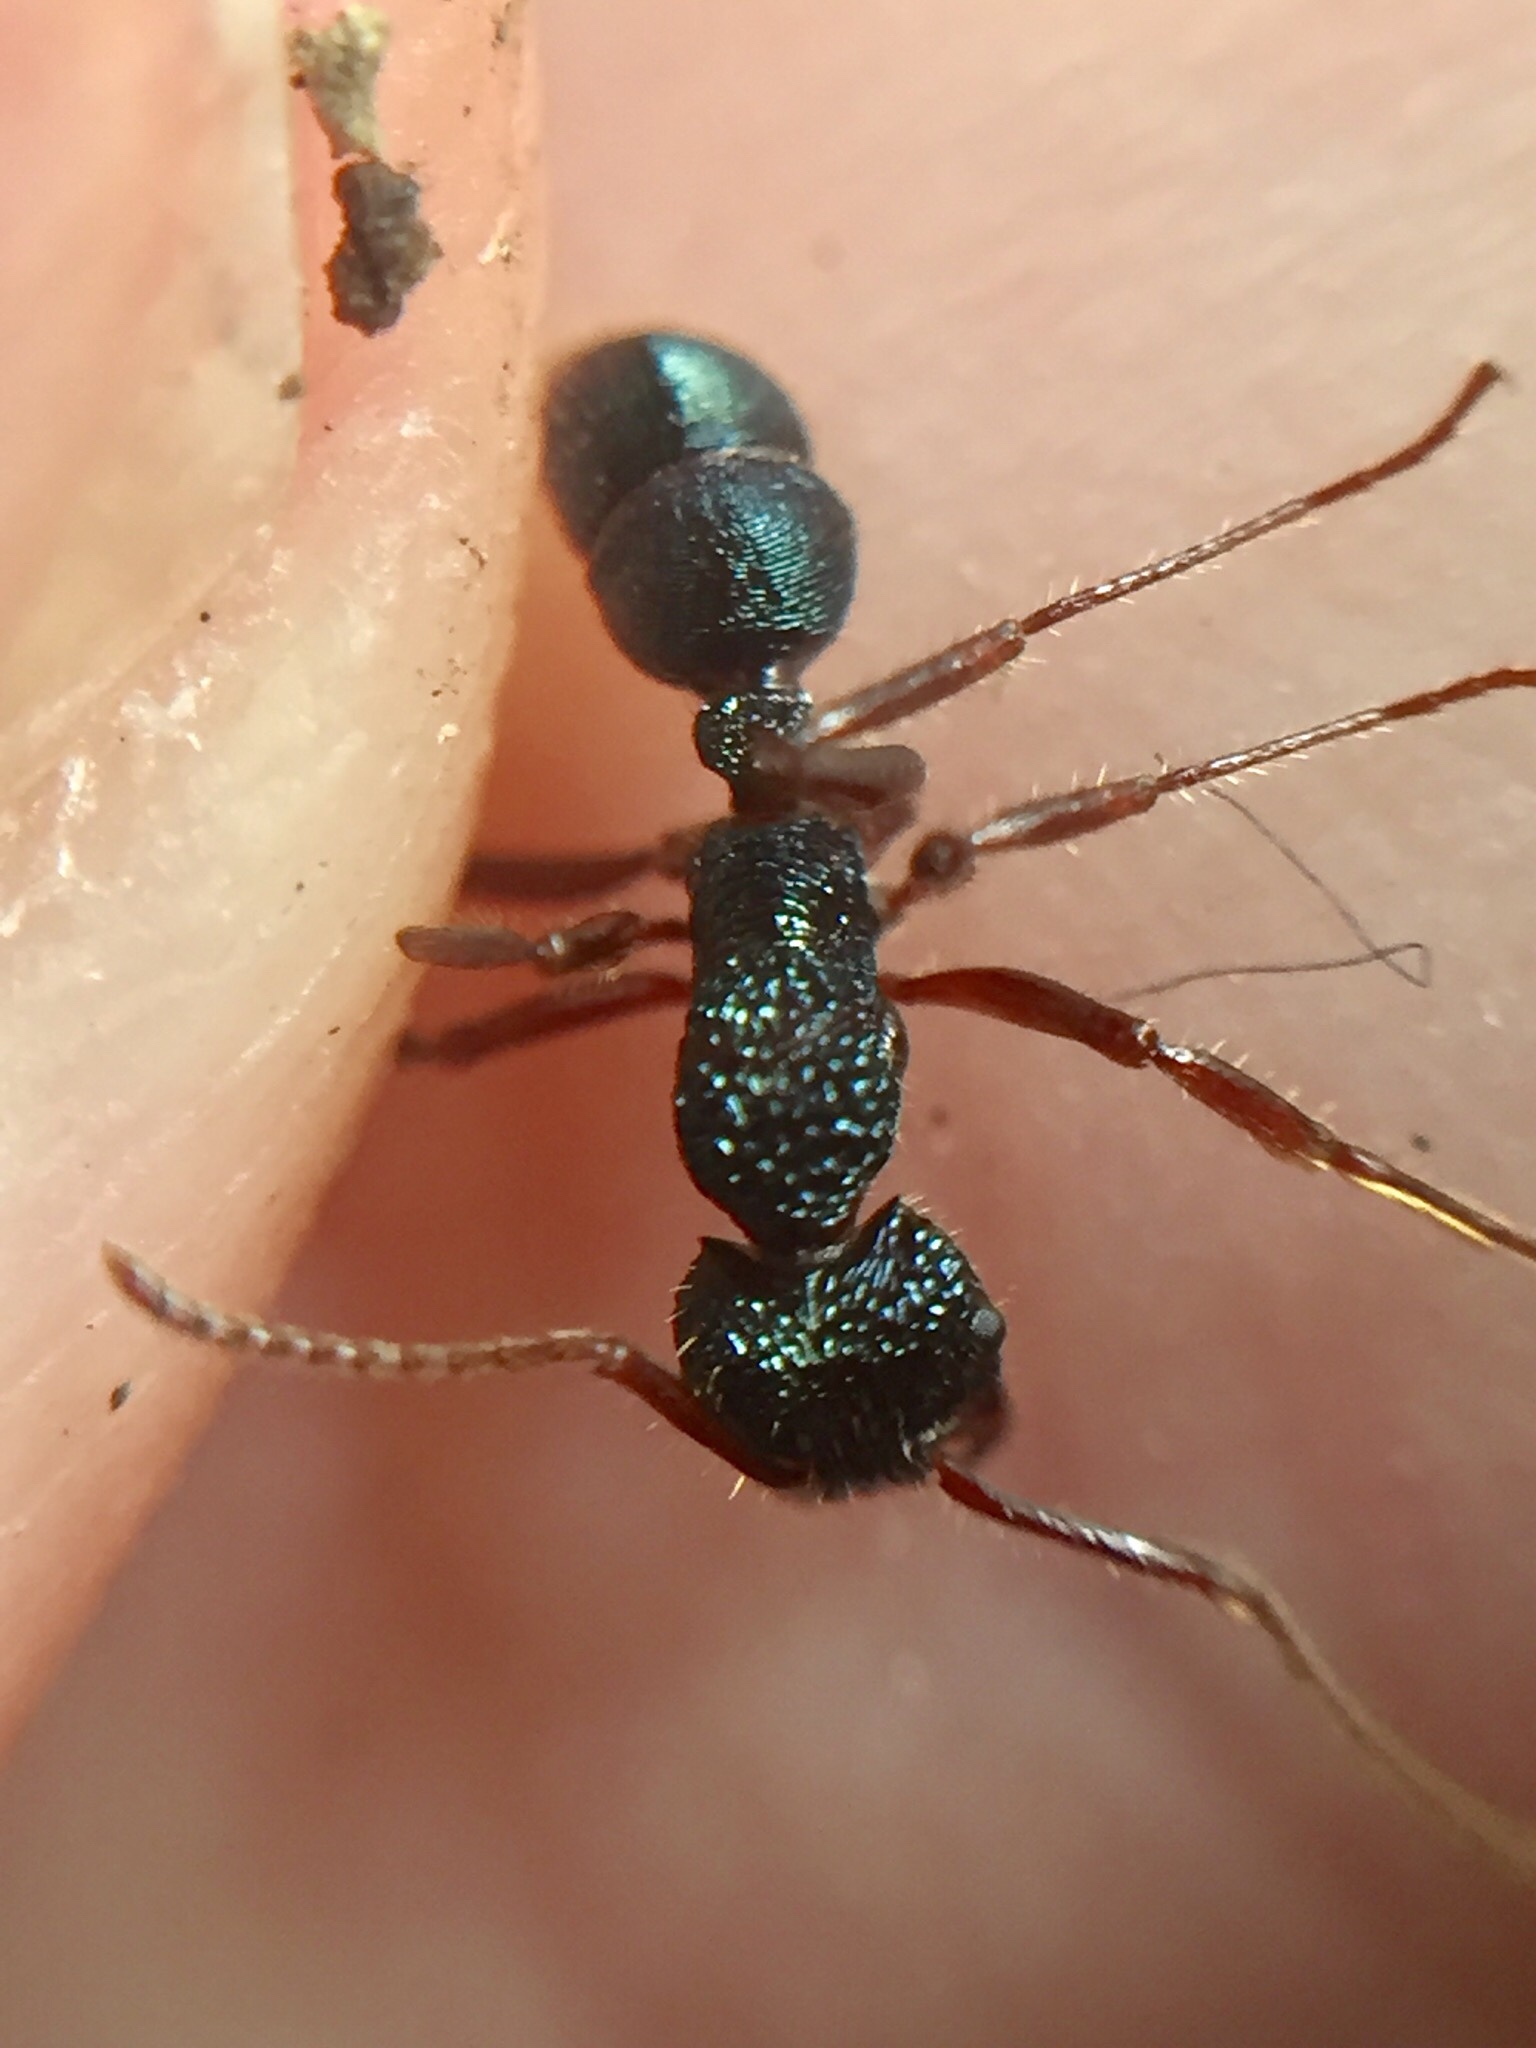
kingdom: Animalia
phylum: Arthropoda
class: Insecta
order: Hymenoptera
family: Formicidae
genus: Rhytidoponera
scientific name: Rhytidoponera chalybaea
